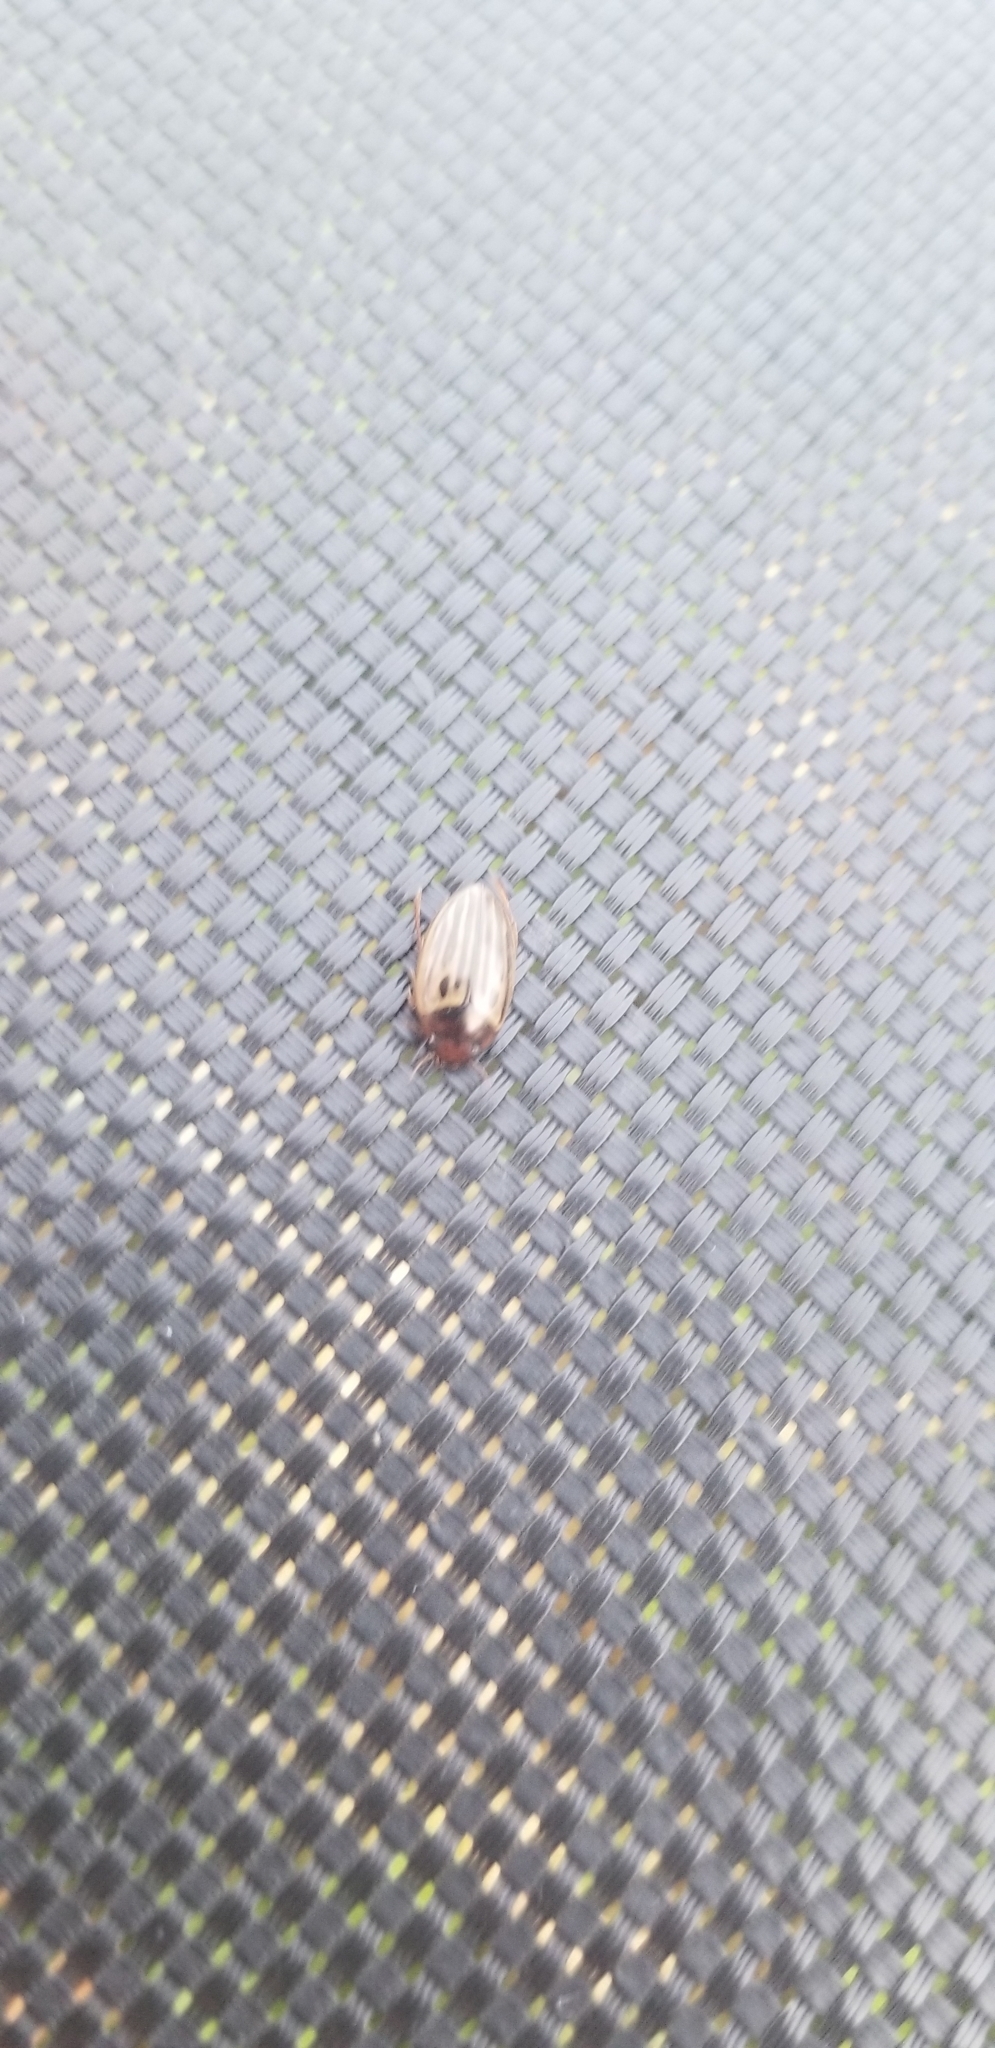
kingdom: Animalia
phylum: Arthropoda
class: Insecta
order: Coleoptera
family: Dytiscidae
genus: Agabus
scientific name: Agabus disintegratus
